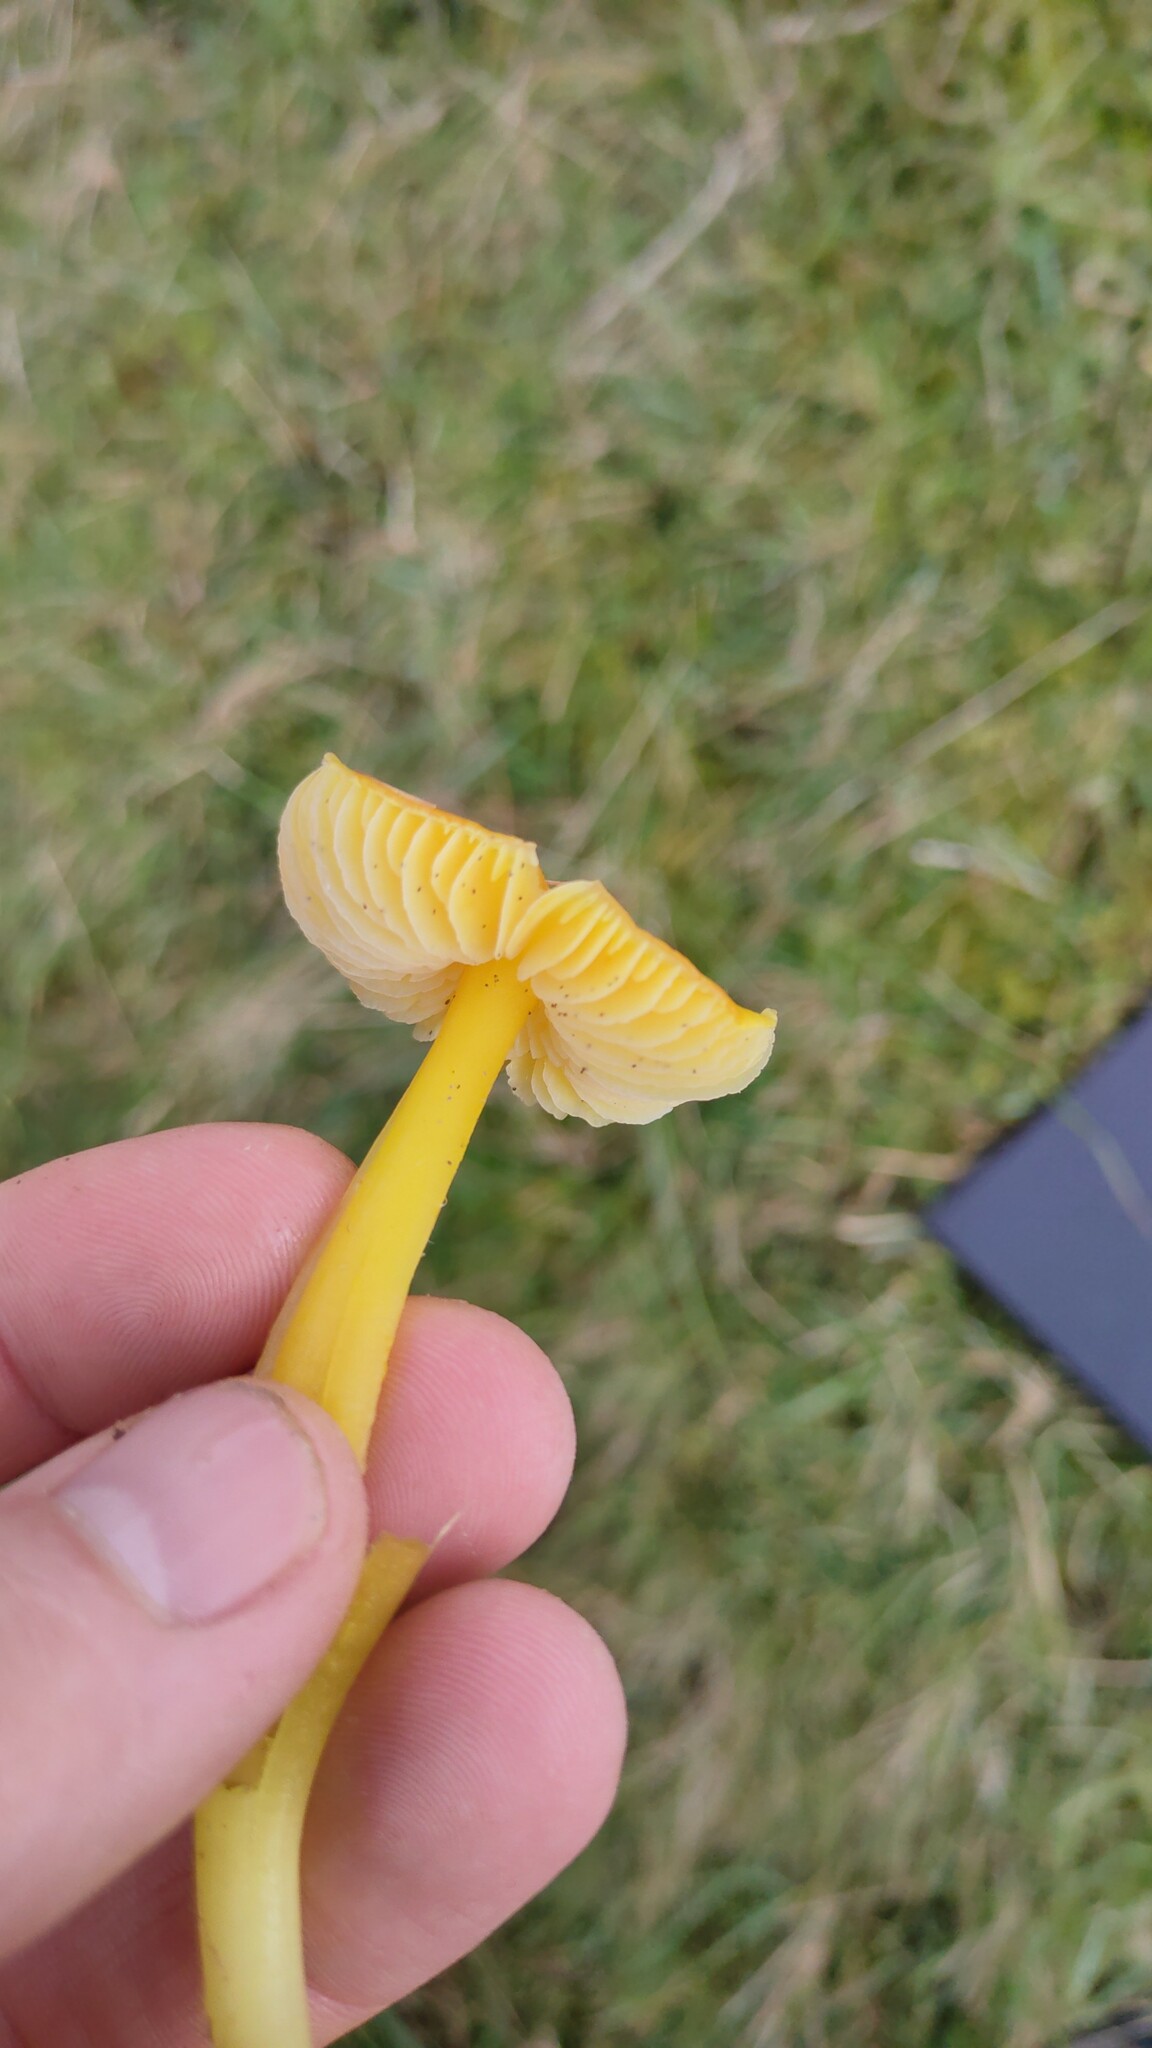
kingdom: Fungi
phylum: Basidiomycota
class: Agaricomycetes
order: Agaricales
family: Hygrophoraceae
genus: Hygrocybe
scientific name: Hygrocybe chlorophana
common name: Golden waxcap
